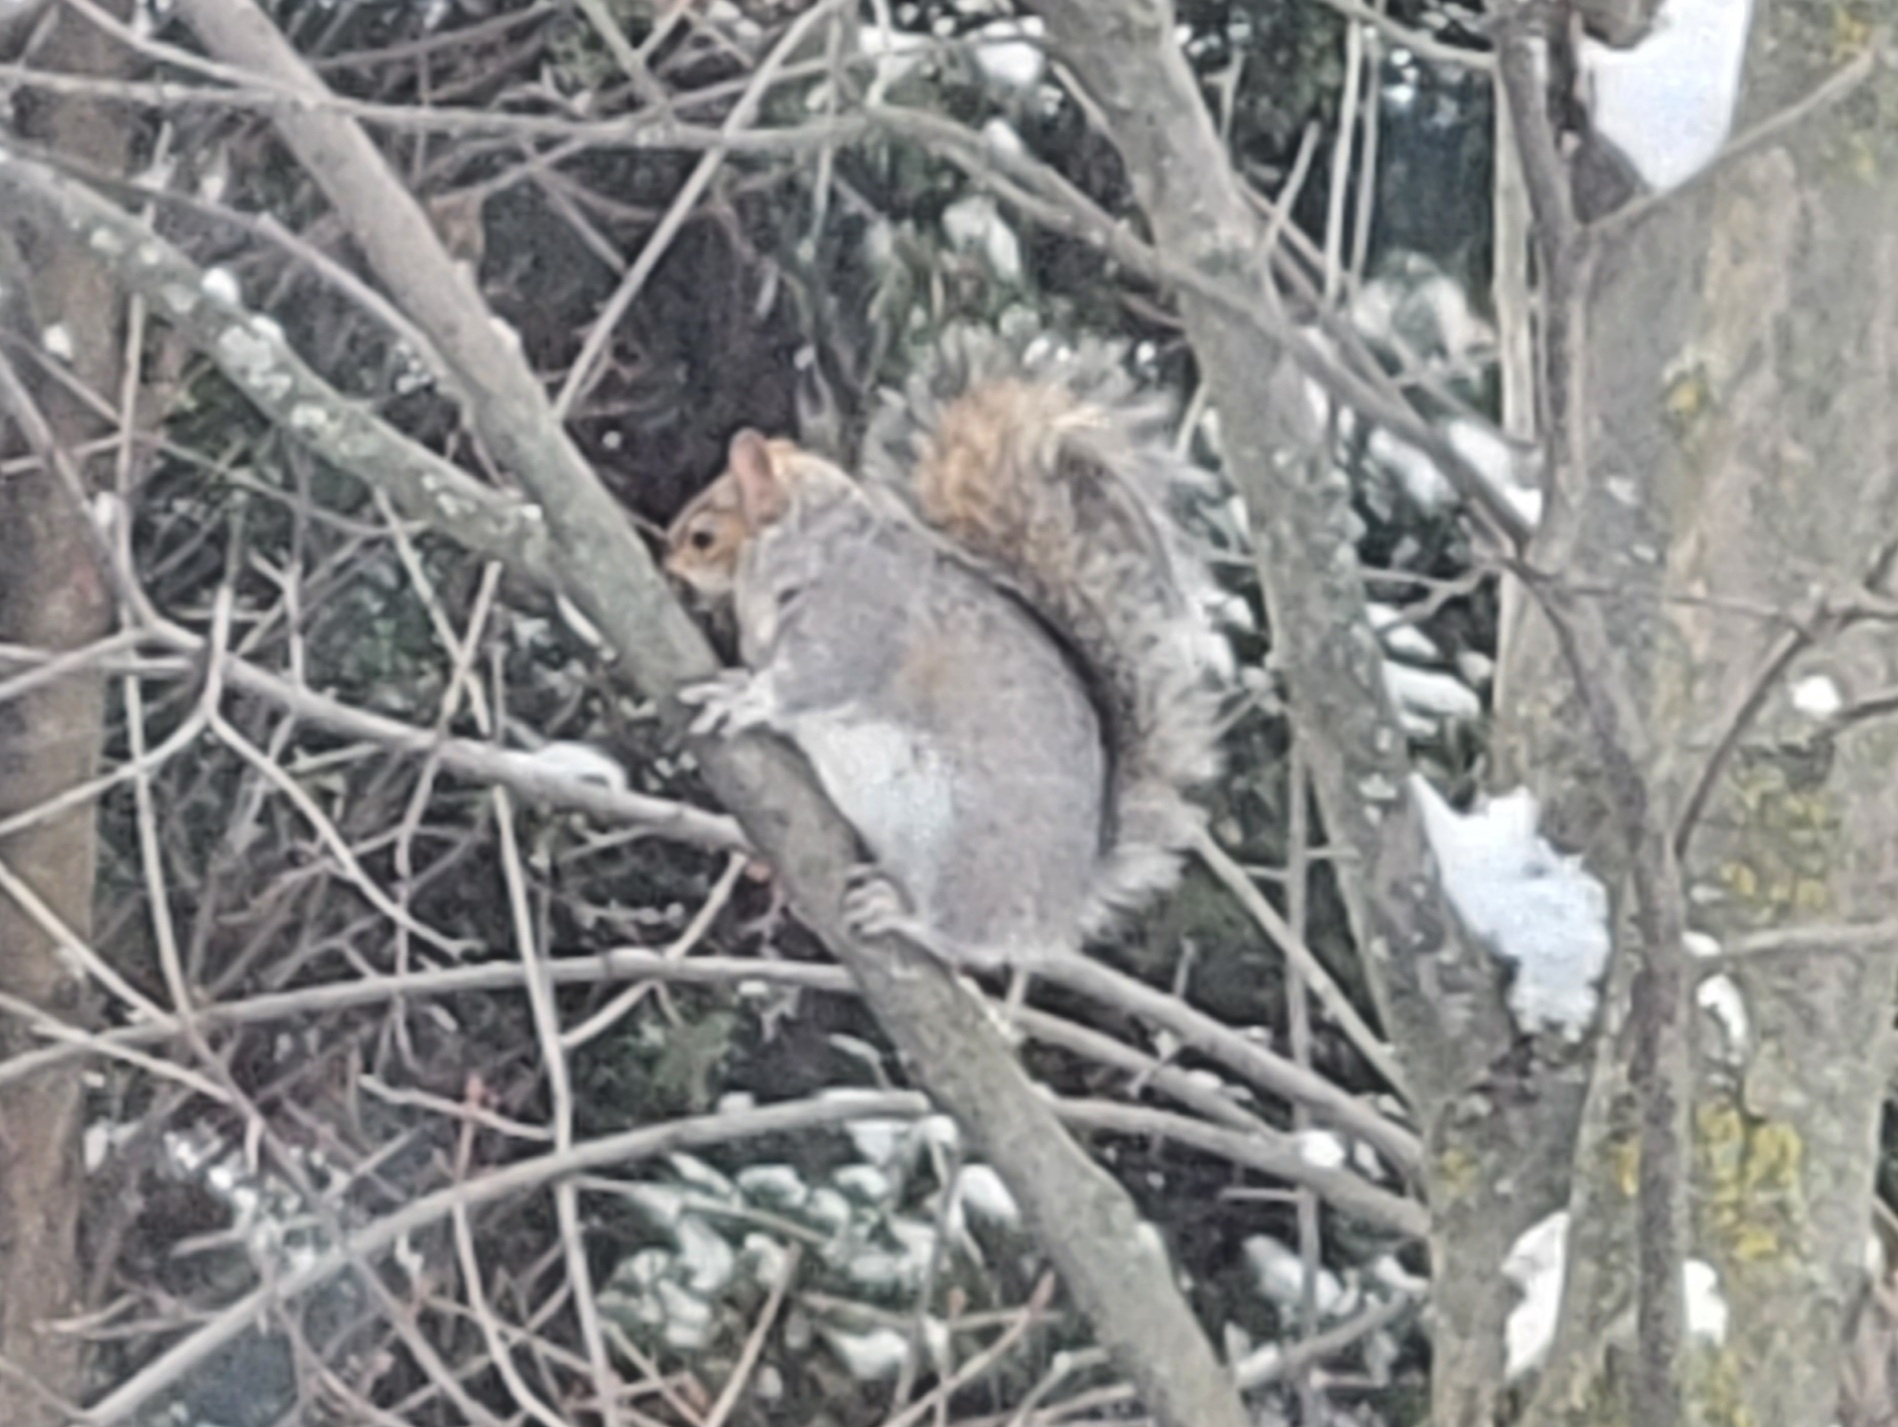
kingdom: Animalia
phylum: Chordata
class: Mammalia
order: Rodentia
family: Sciuridae
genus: Sciurus
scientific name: Sciurus carolinensis
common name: Eastern gray squirrel
